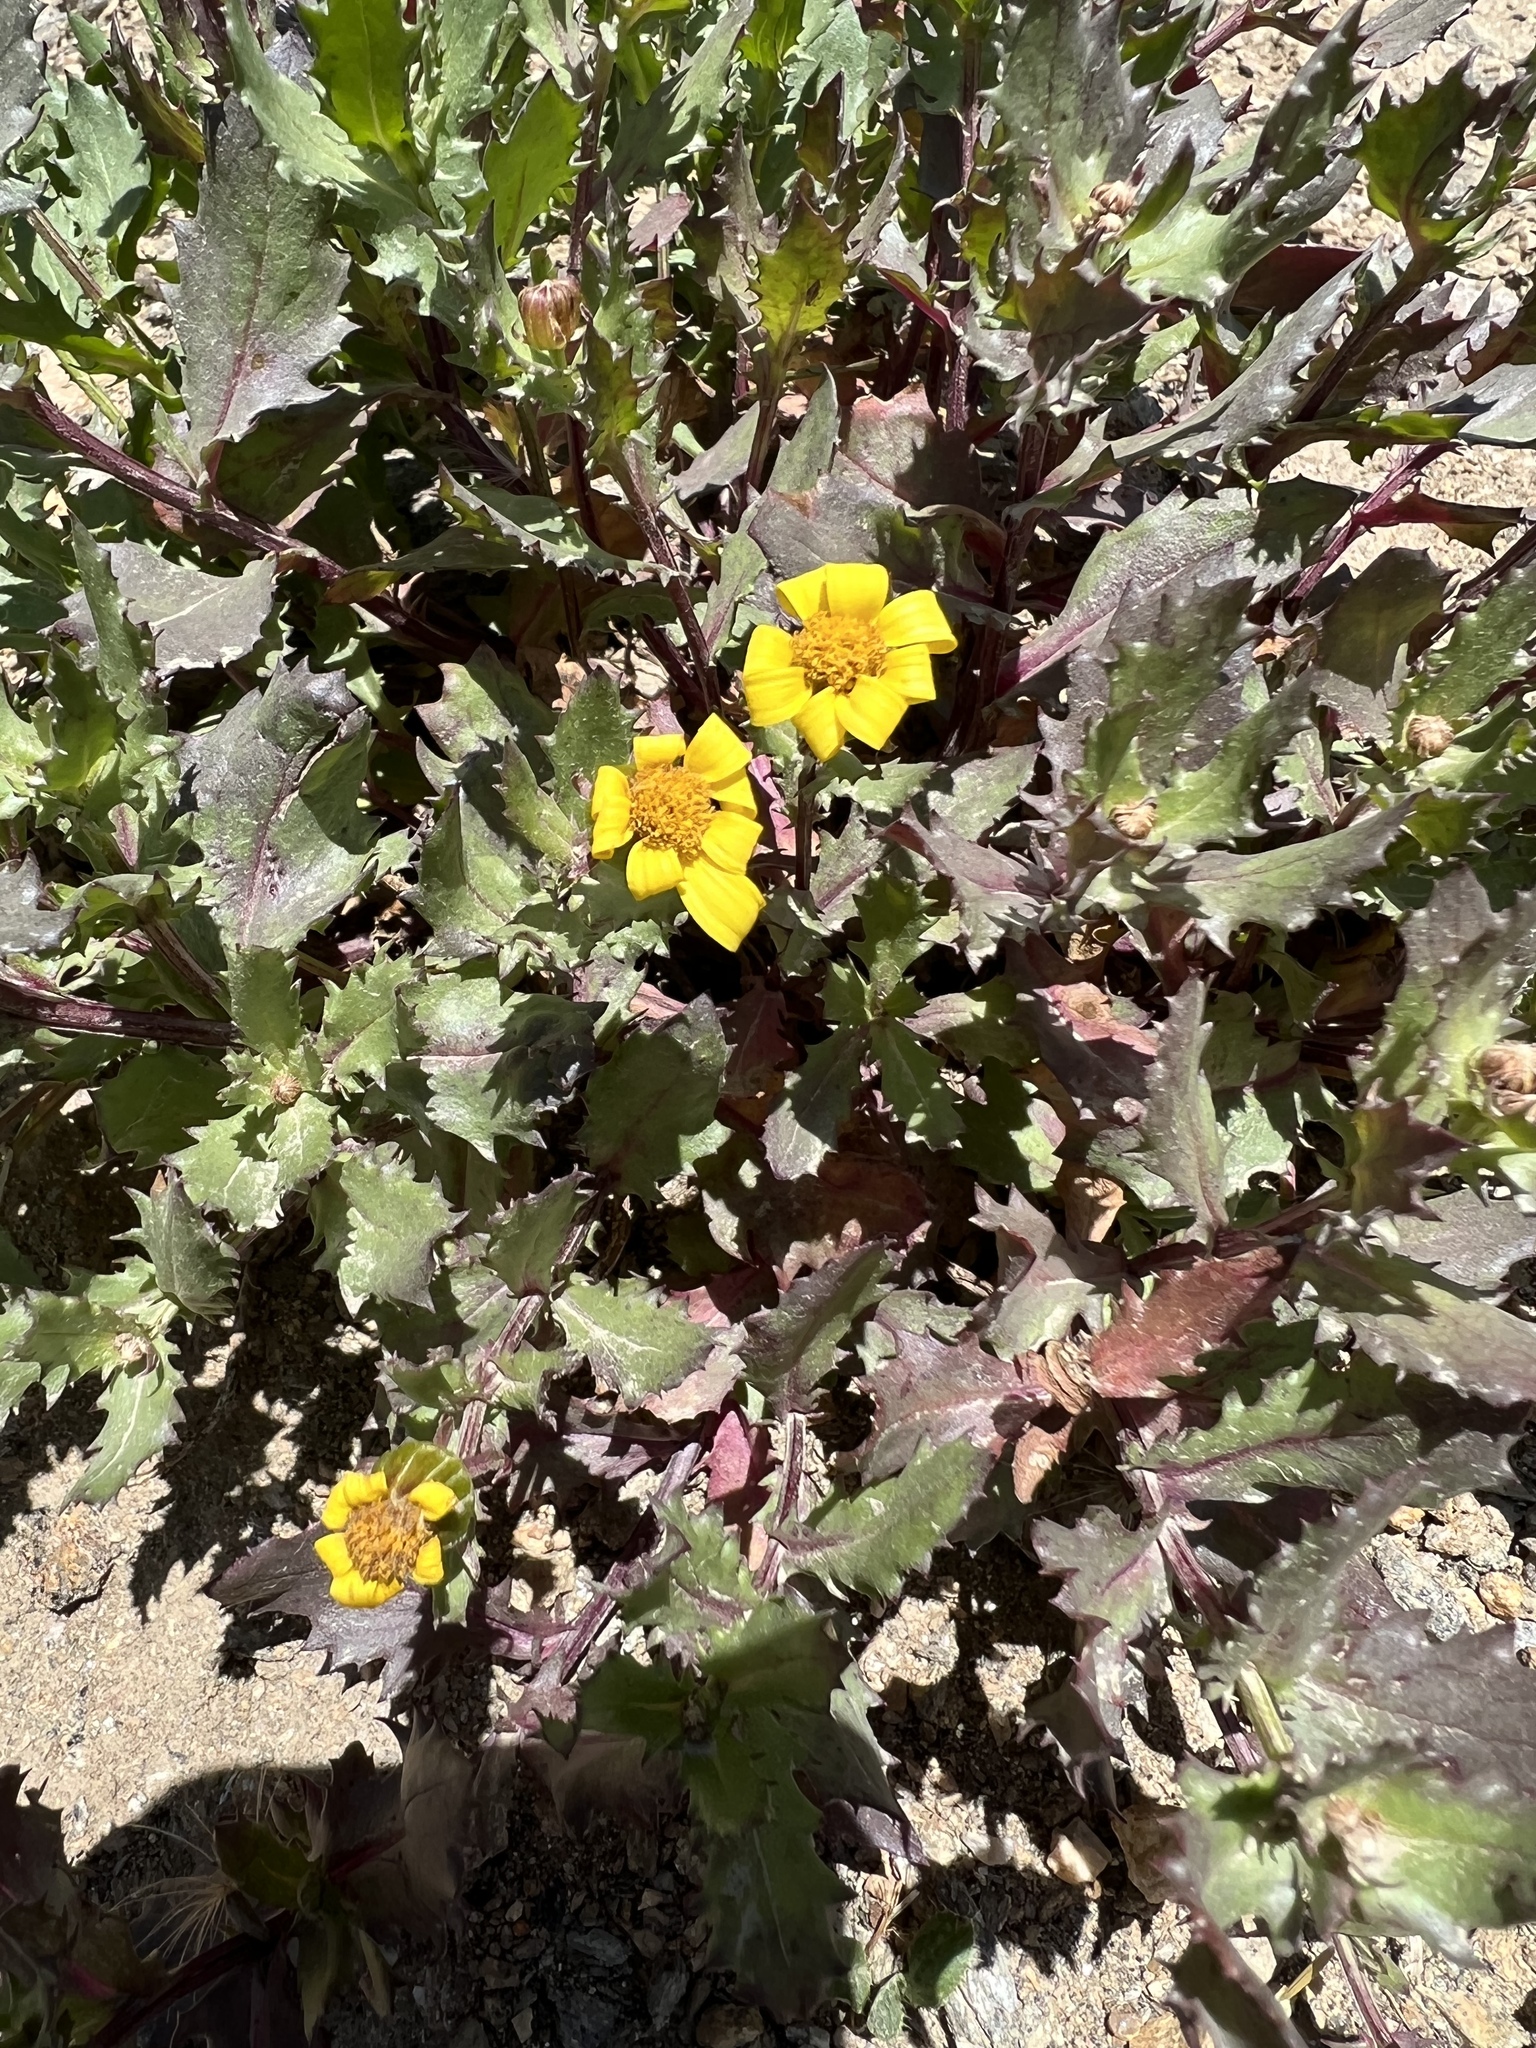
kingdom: Plantae
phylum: Tracheophyta
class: Magnoliopsida
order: Asterales
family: Asteraceae
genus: Senecio
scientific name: Senecio fremontii
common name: Fremont's groundsel
